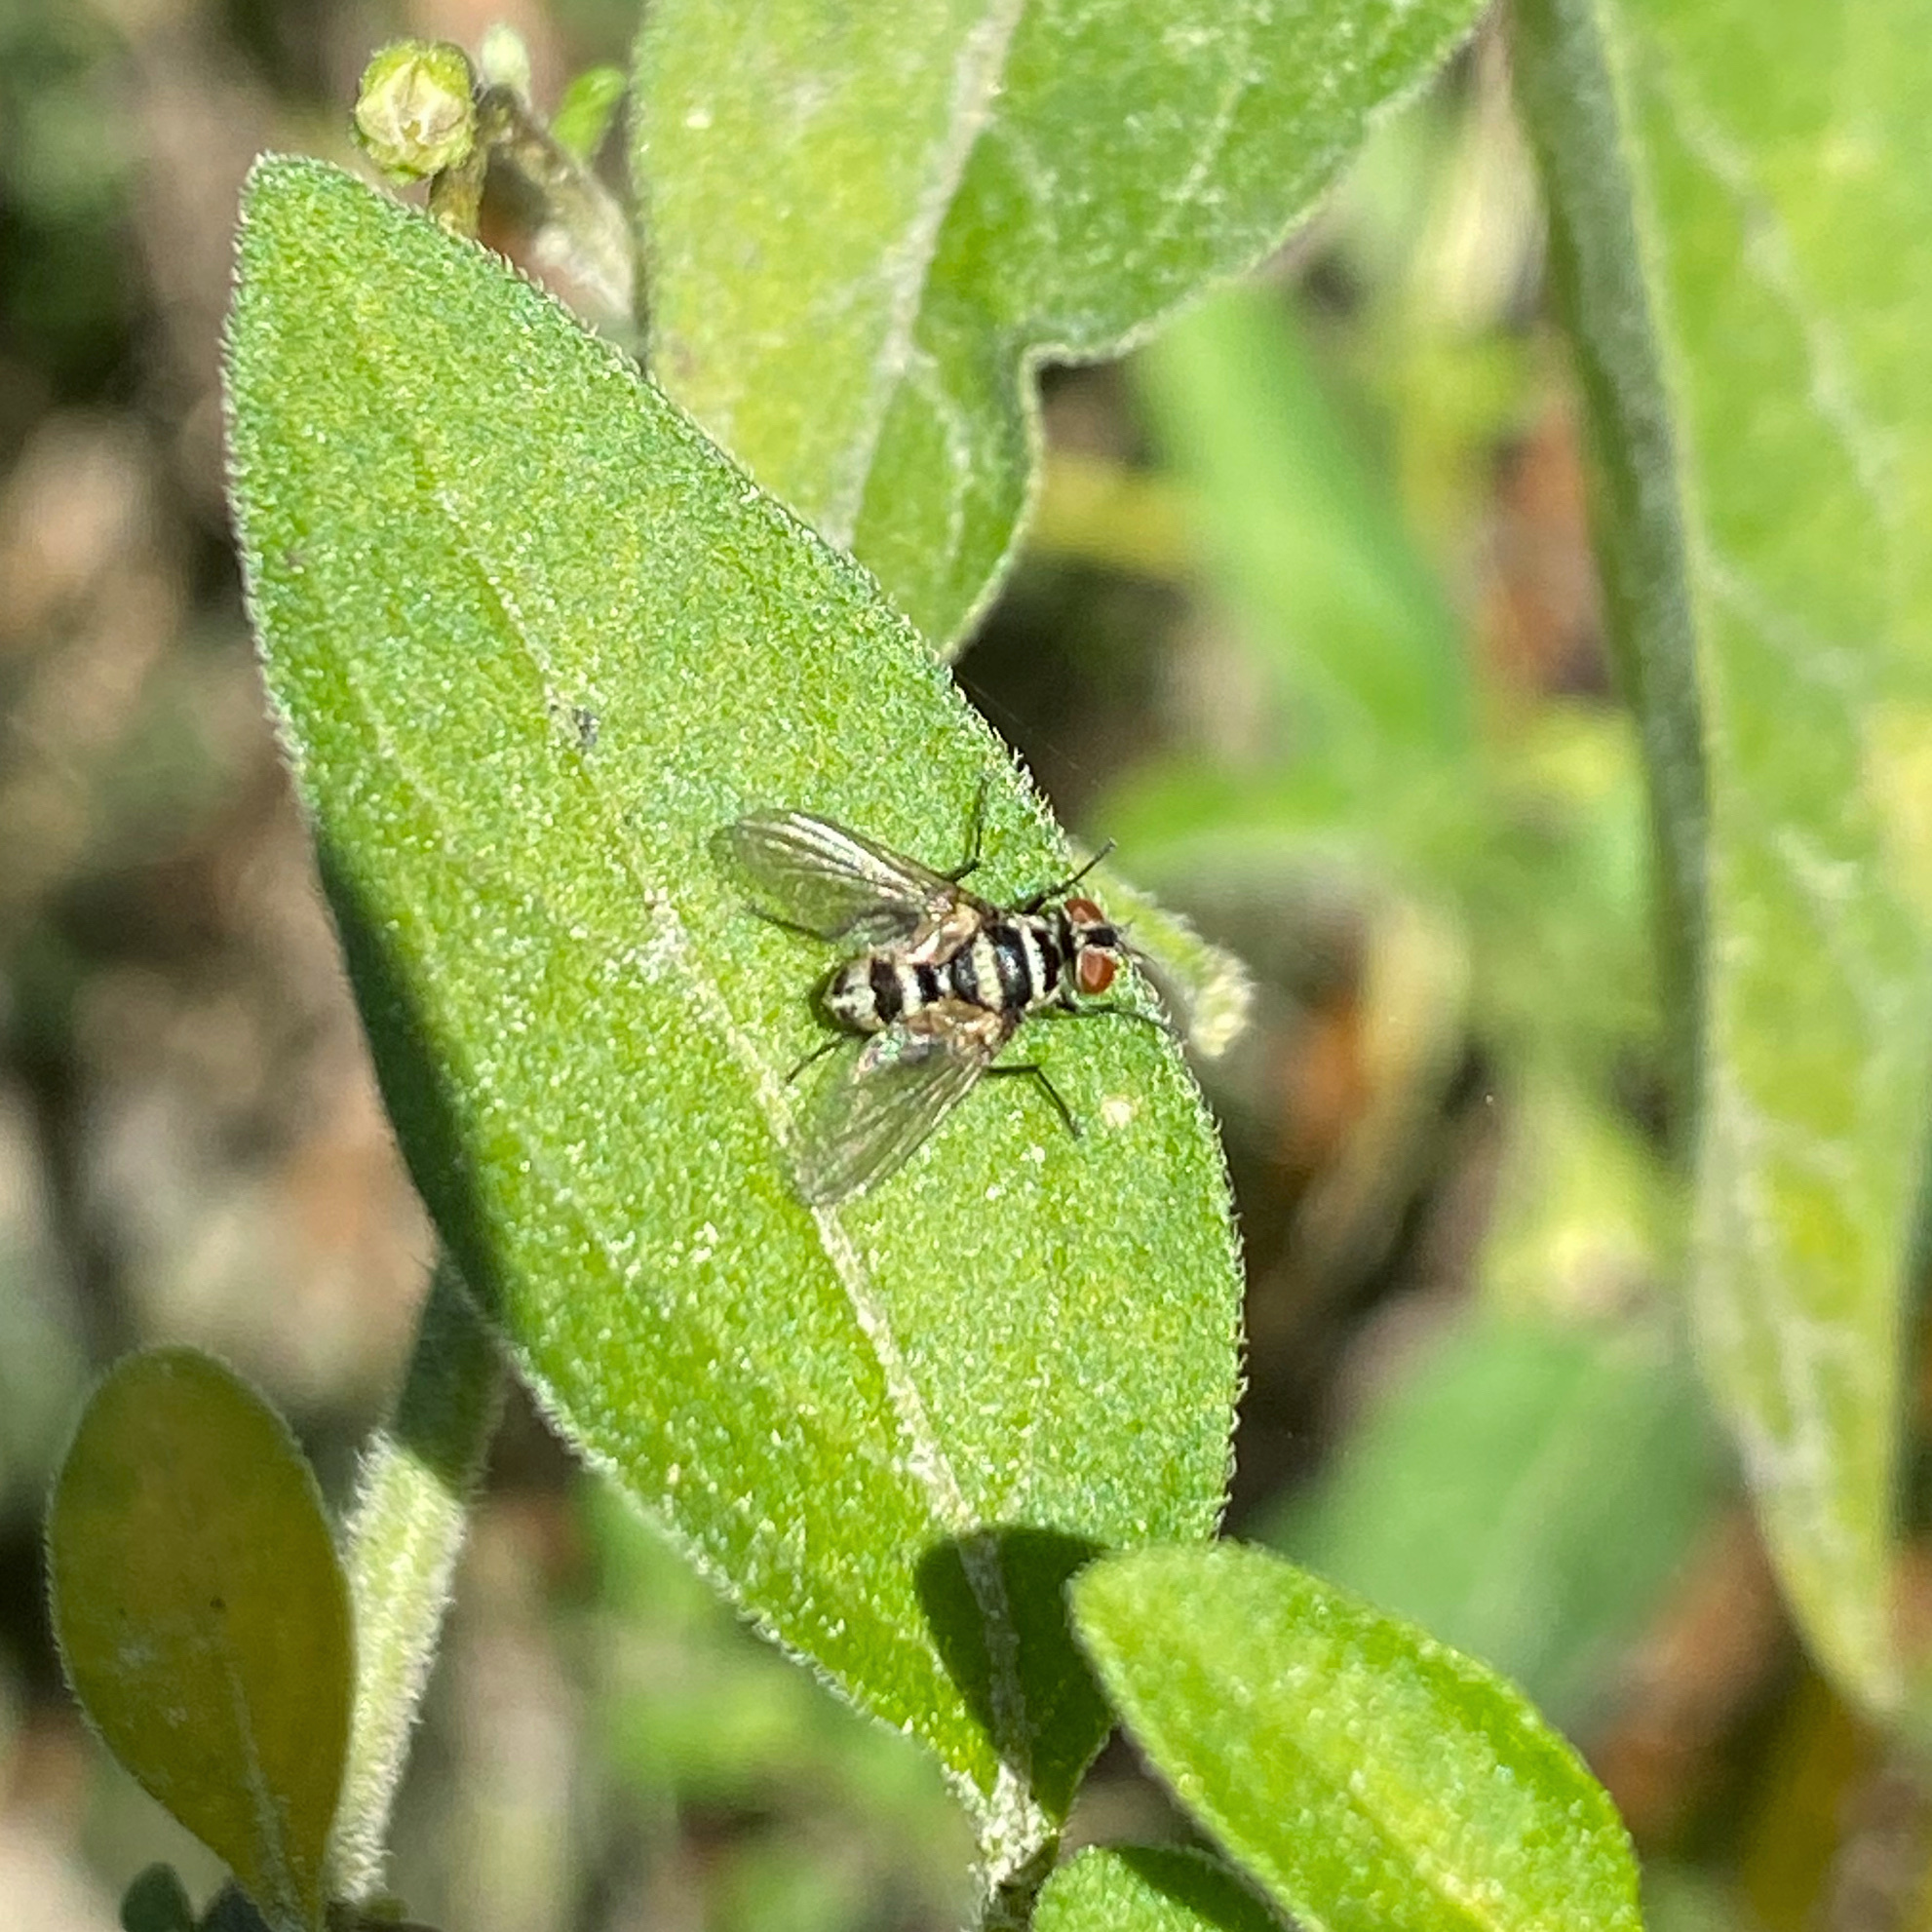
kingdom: Animalia
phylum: Arthropoda
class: Insecta
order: Diptera
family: Tachinidae
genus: Trigonospila
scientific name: Trigonospila brevifacies
